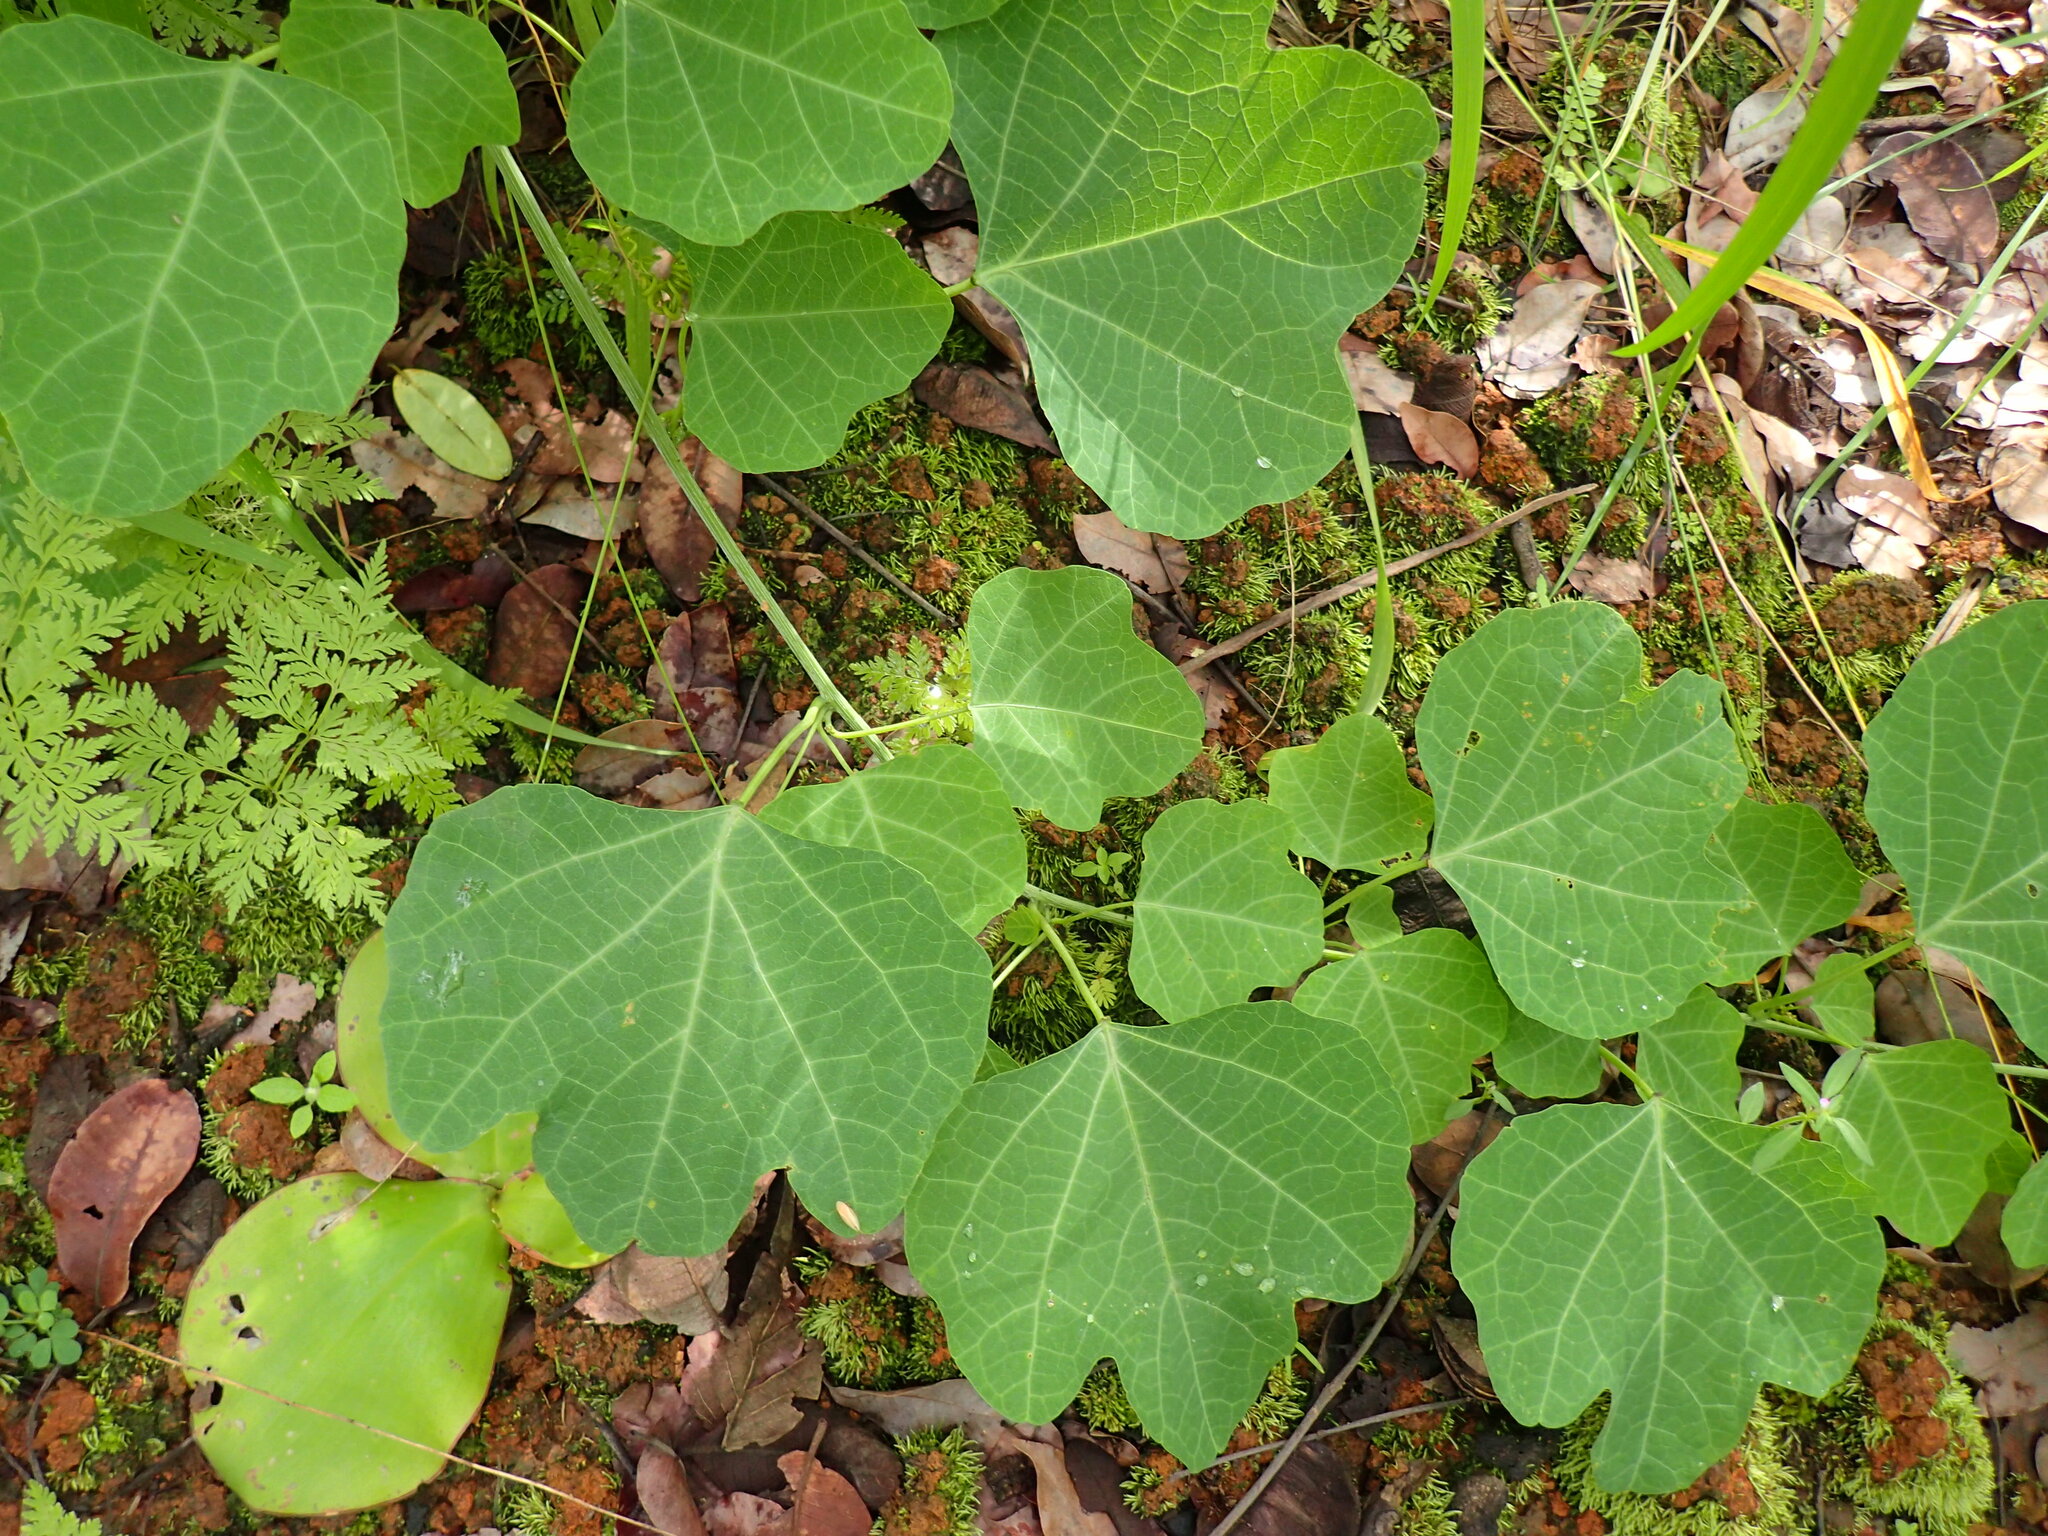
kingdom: Plantae
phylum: Tracheophyta
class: Magnoliopsida
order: Malpighiales
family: Passifloraceae
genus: Adenia
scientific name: Adenia gummifera
